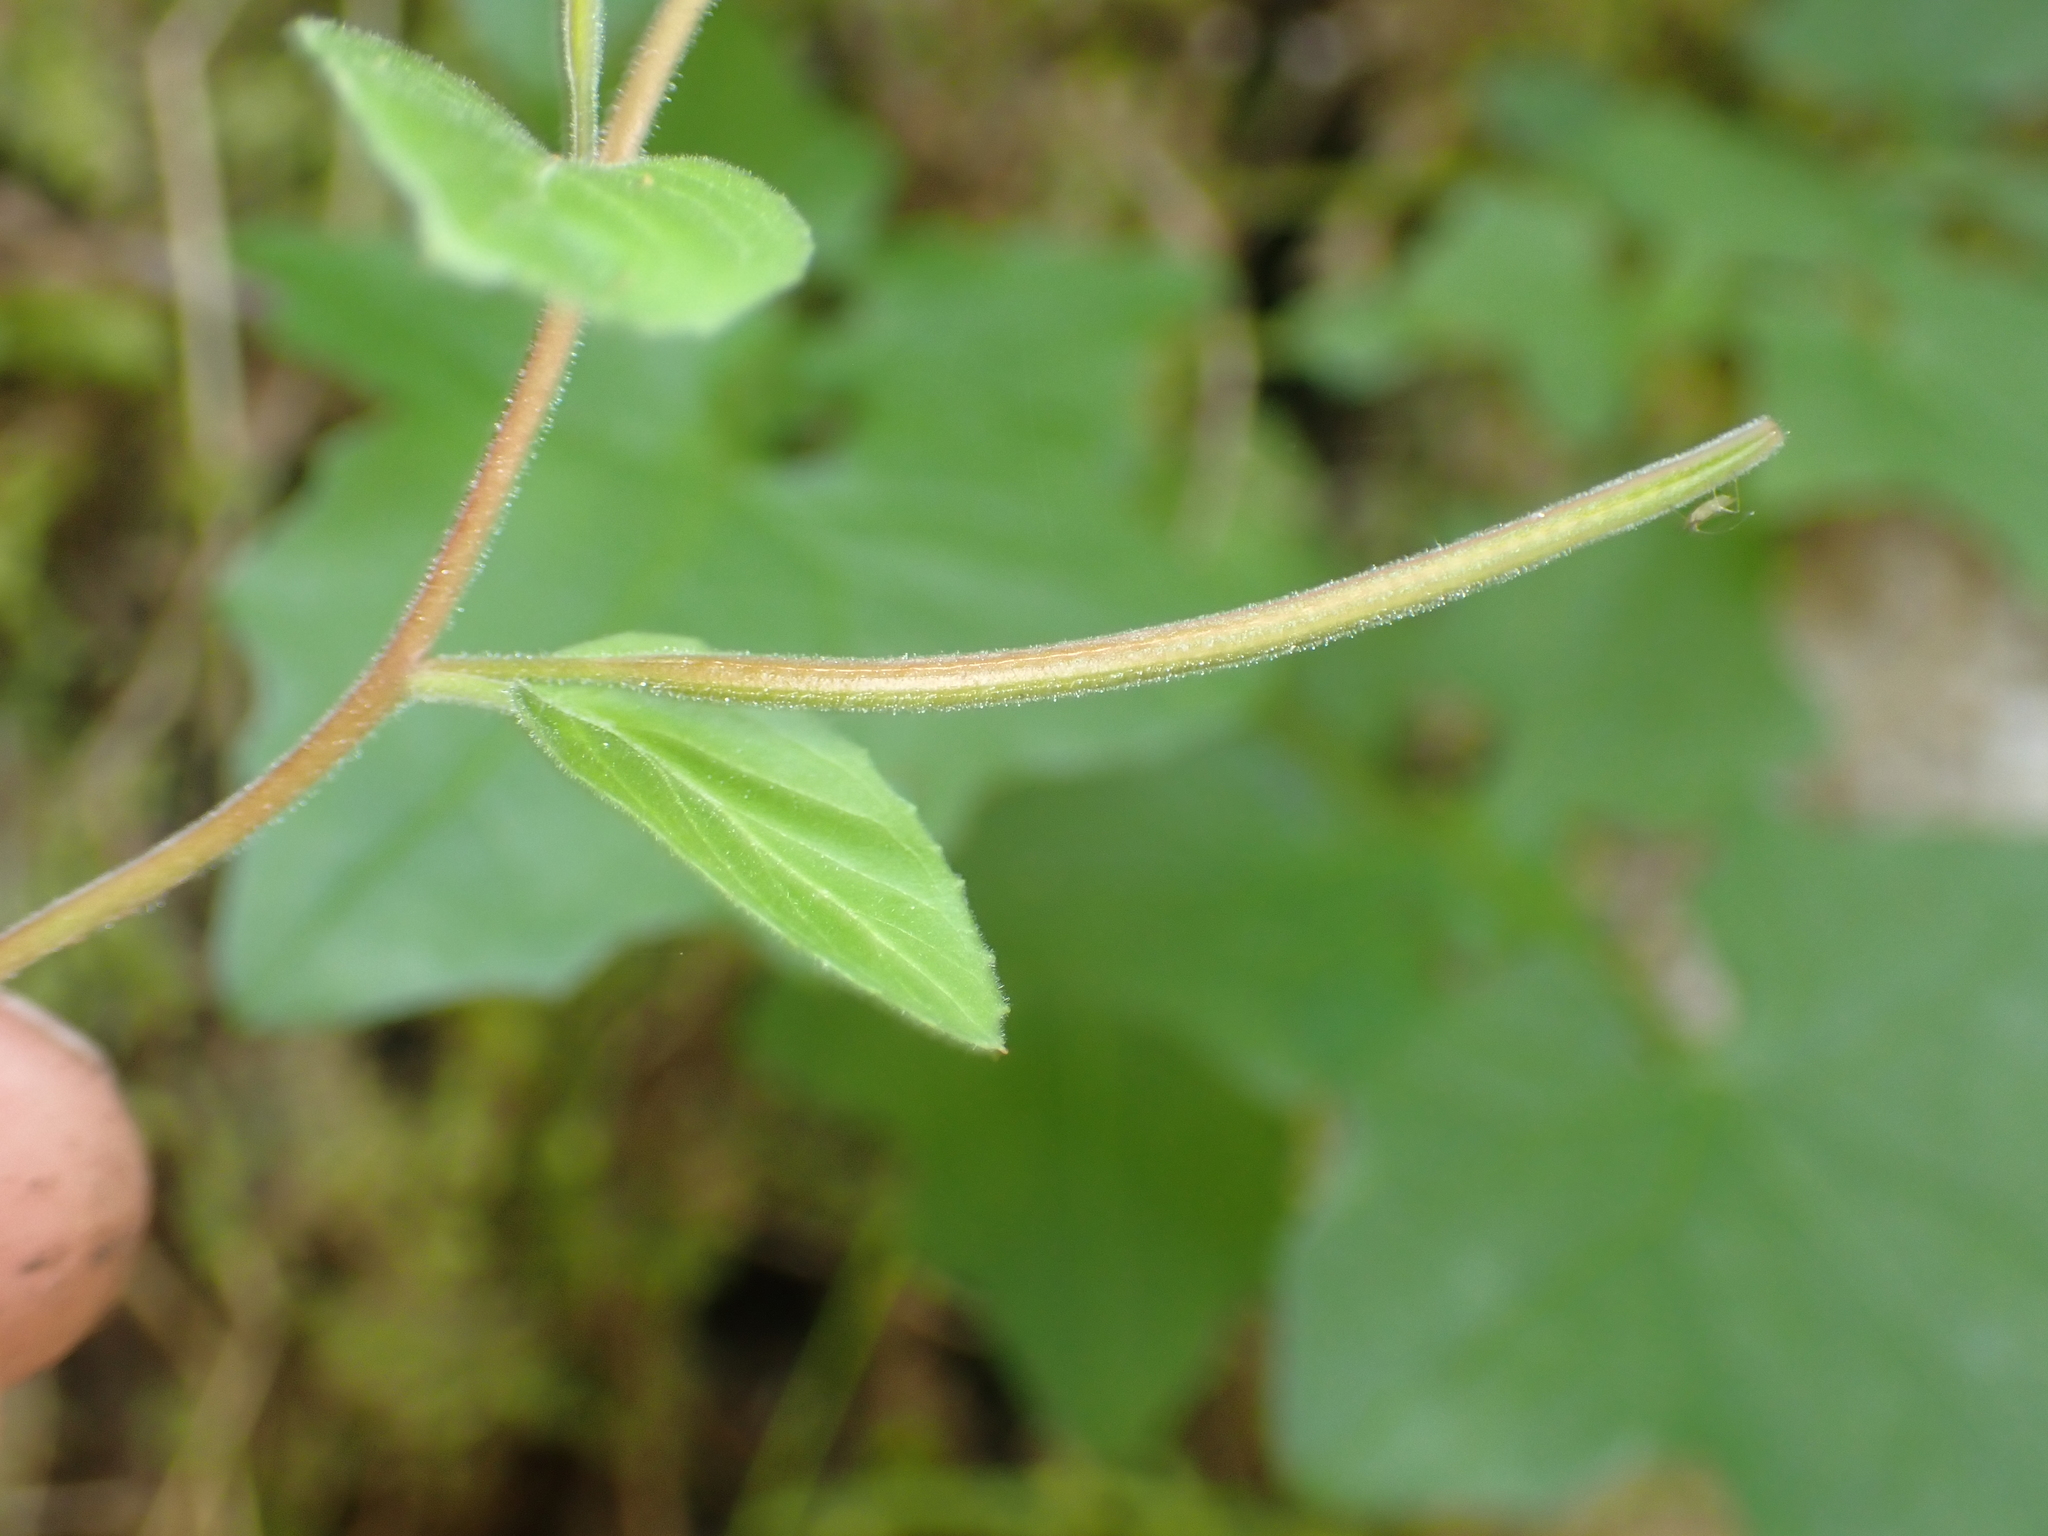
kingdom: Plantae
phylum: Tracheophyta
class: Magnoliopsida
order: Myrtales
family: Onagraceae
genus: Epilobium
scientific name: Epilobium pubens
